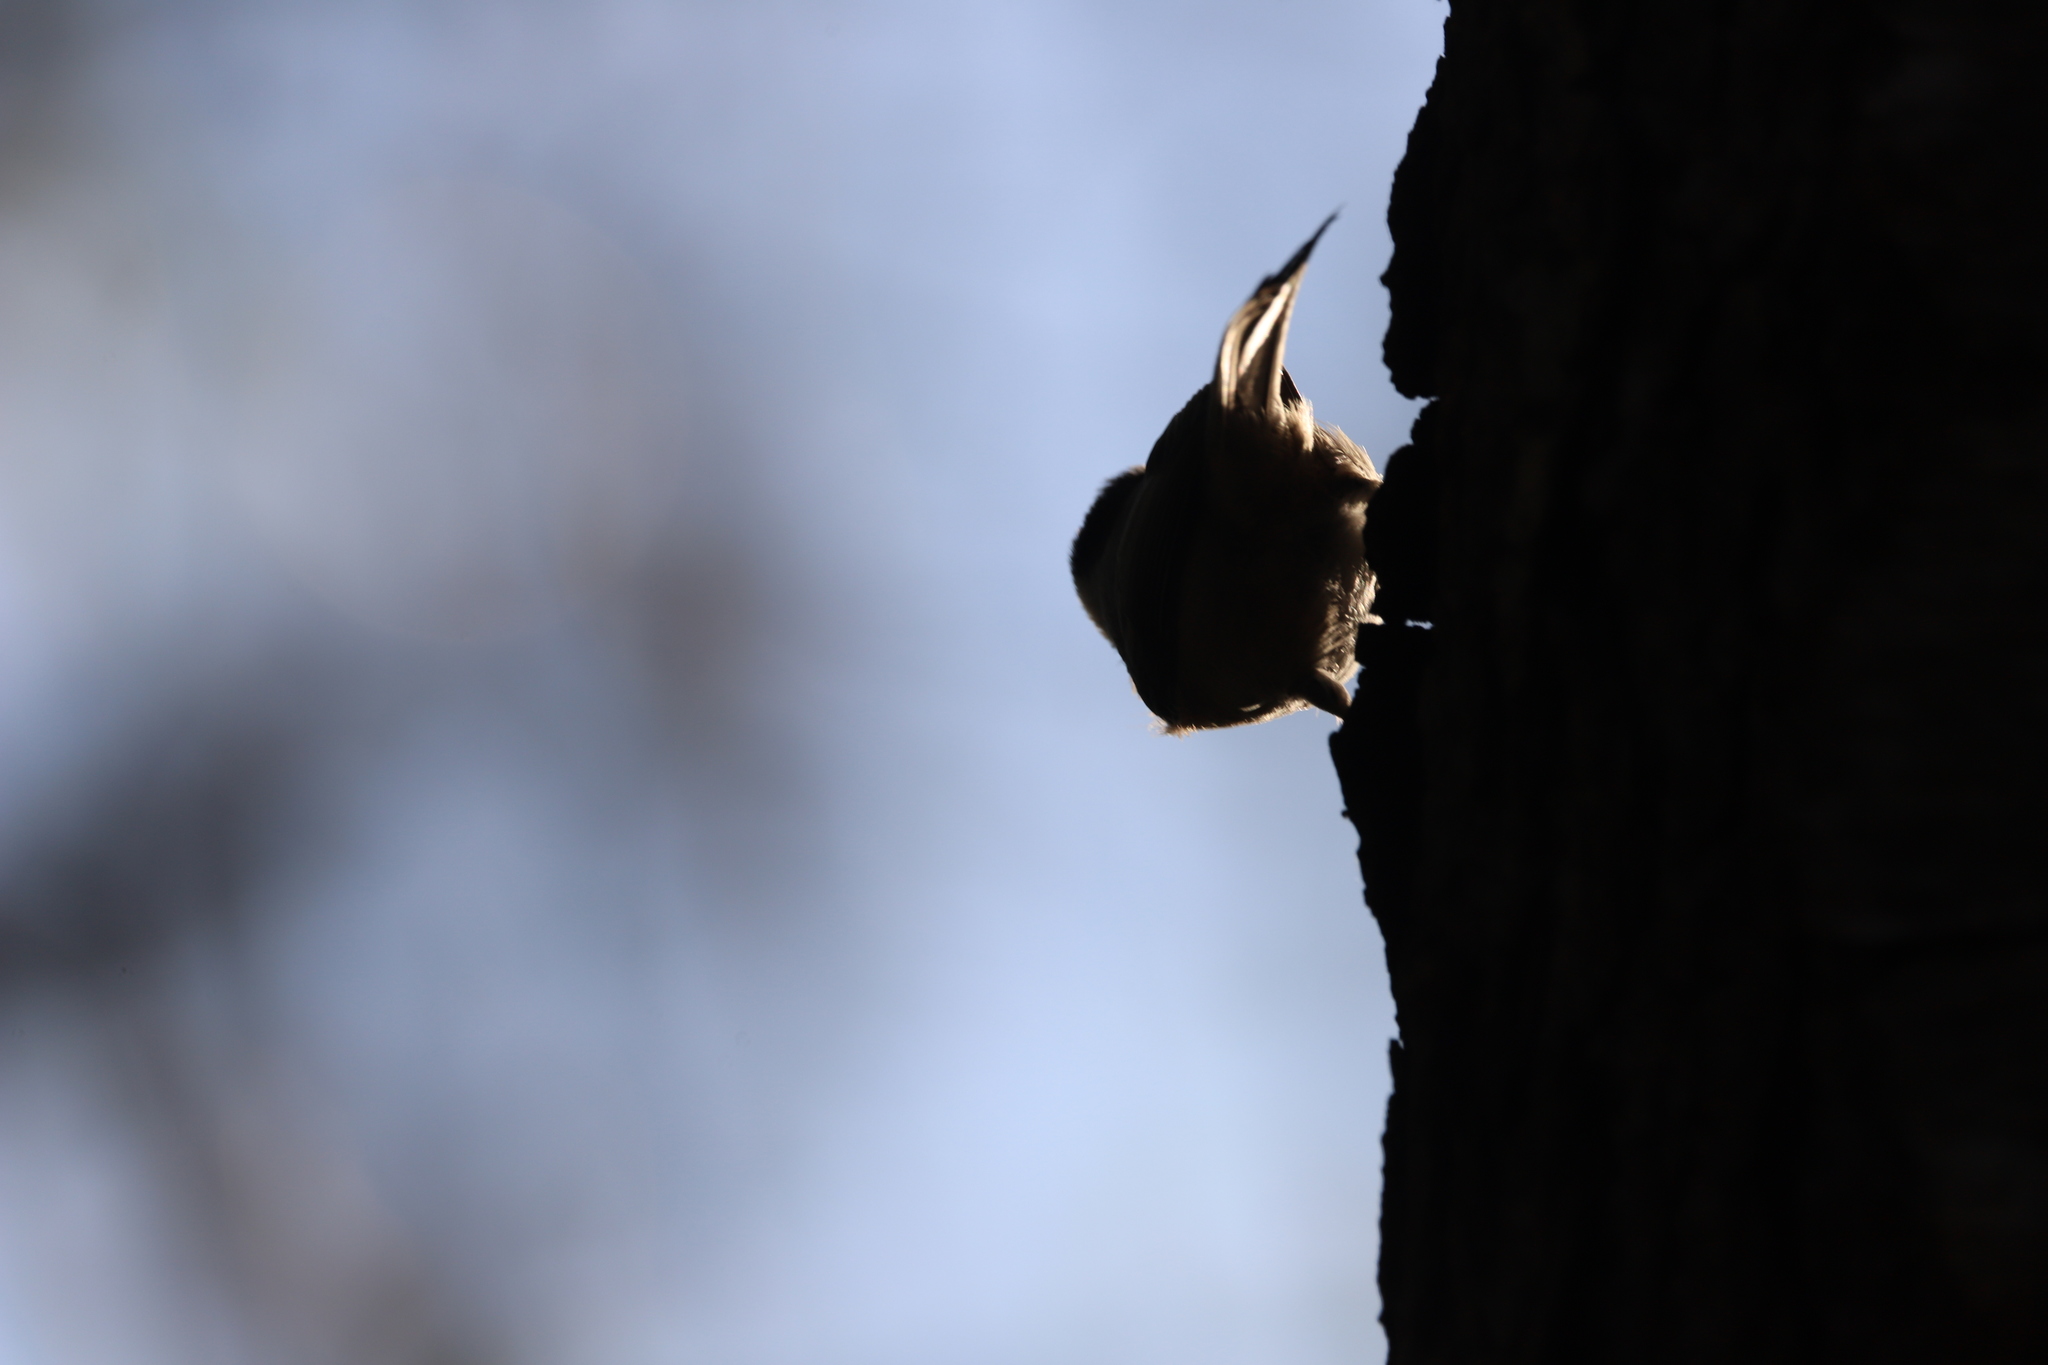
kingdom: Animalia
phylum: Chordata
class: Aves
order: Passeriformes
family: Paridae
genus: Poecile
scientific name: Poecile atricapillus
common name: Black-capped chickadee
